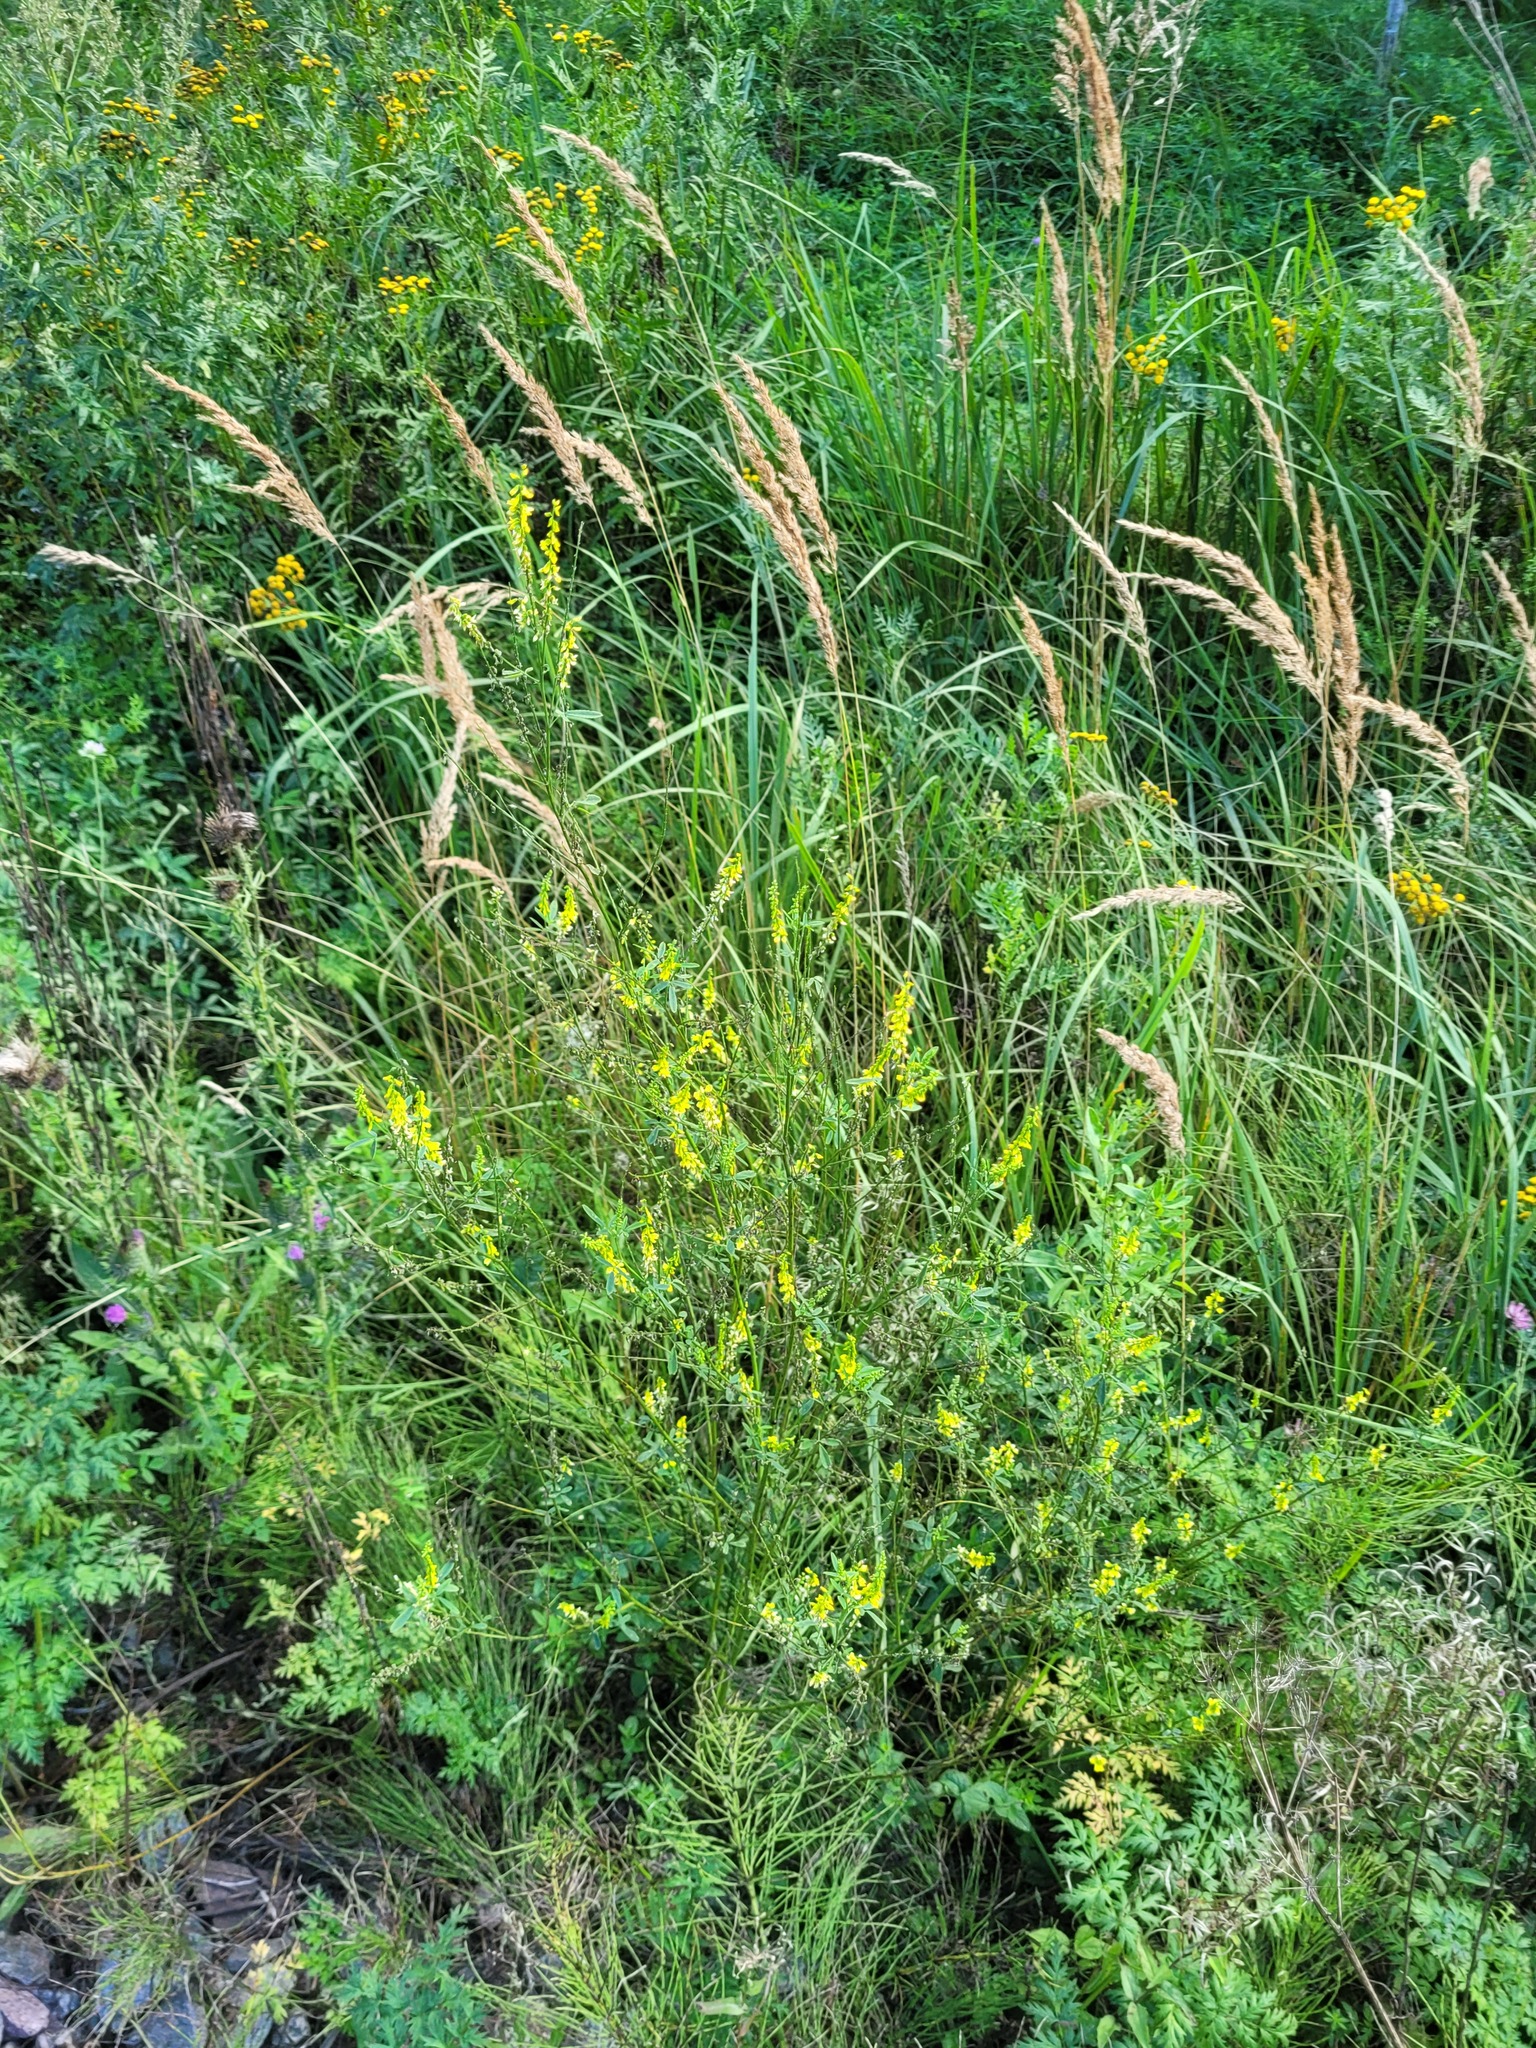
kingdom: Plantae
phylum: Tracheophyta
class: Magnoliopsida
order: Fabales
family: Fabaceae
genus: Melilotus
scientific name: Melilotus officinalis
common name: Sweetclover
